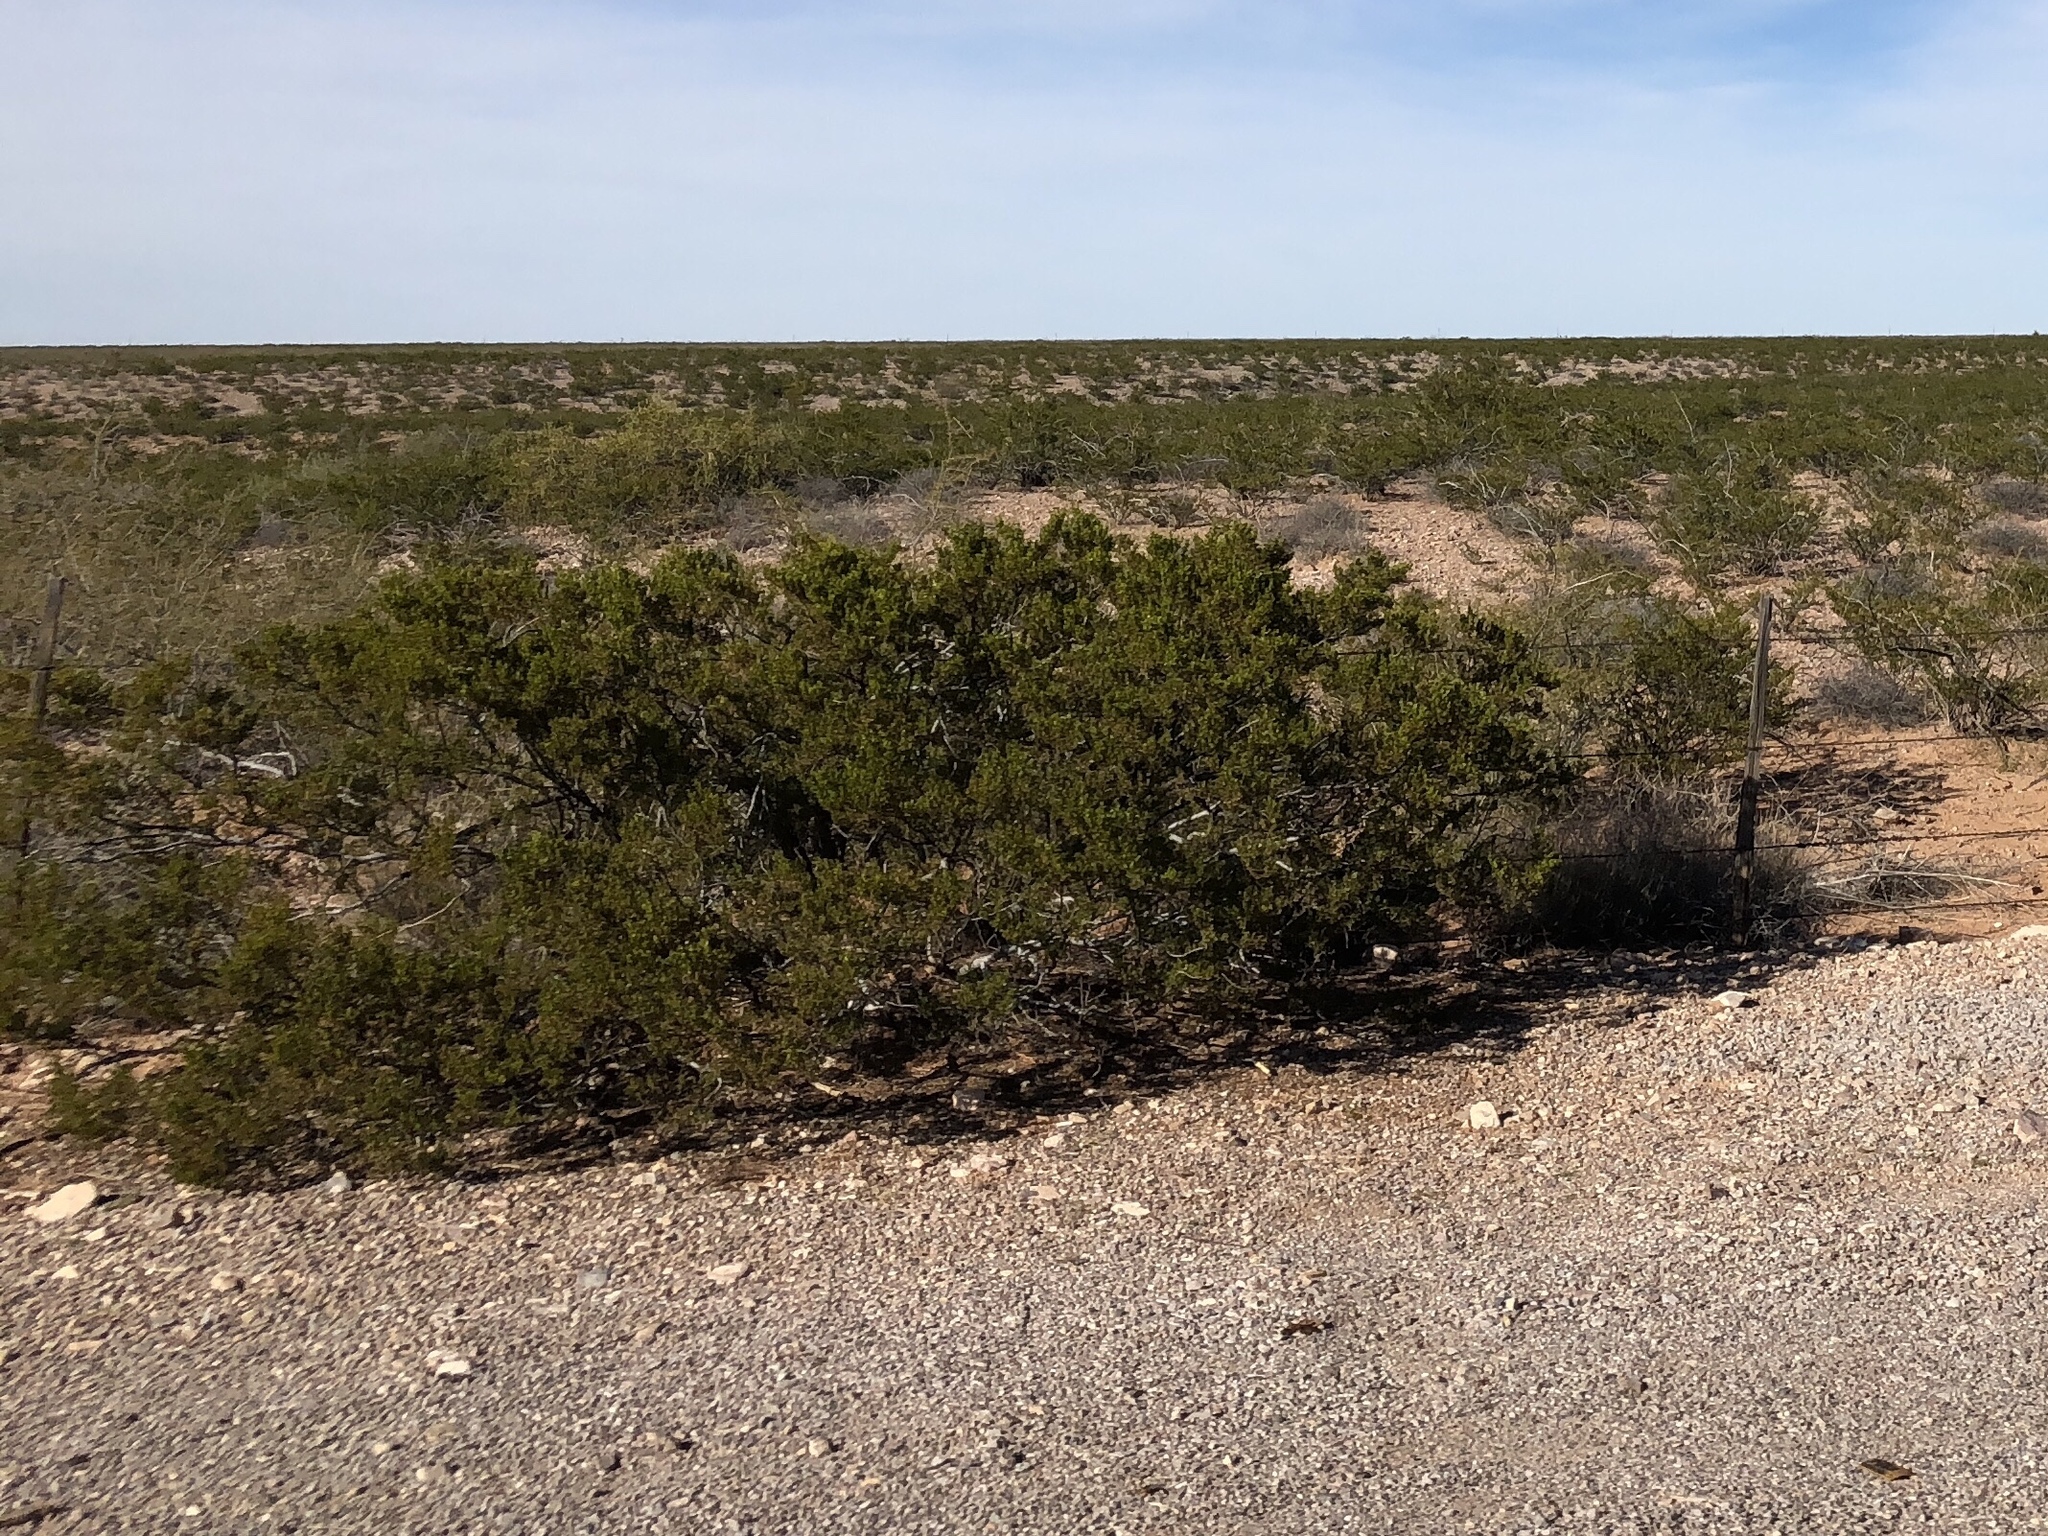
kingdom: Plantae
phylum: Tracheophyta
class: Magnoliopsida
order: Zygophyllales
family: Zygophyllaceae
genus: Larrea
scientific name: Larrea tridentata
